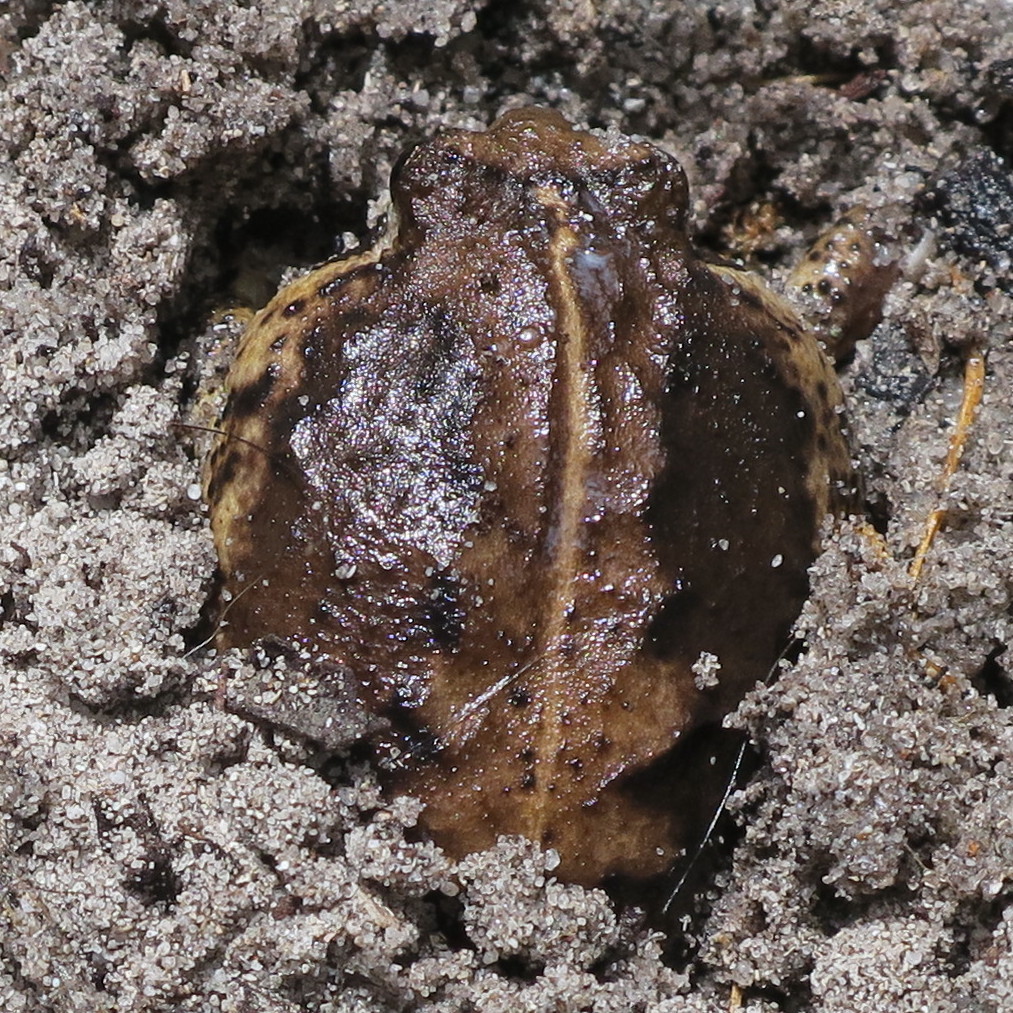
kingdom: Animalia
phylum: Chordata
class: Amphibia
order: Anura
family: Brevicipitidae
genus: Breviceps
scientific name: Breviceps rosei
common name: Rose's short-headed frog
